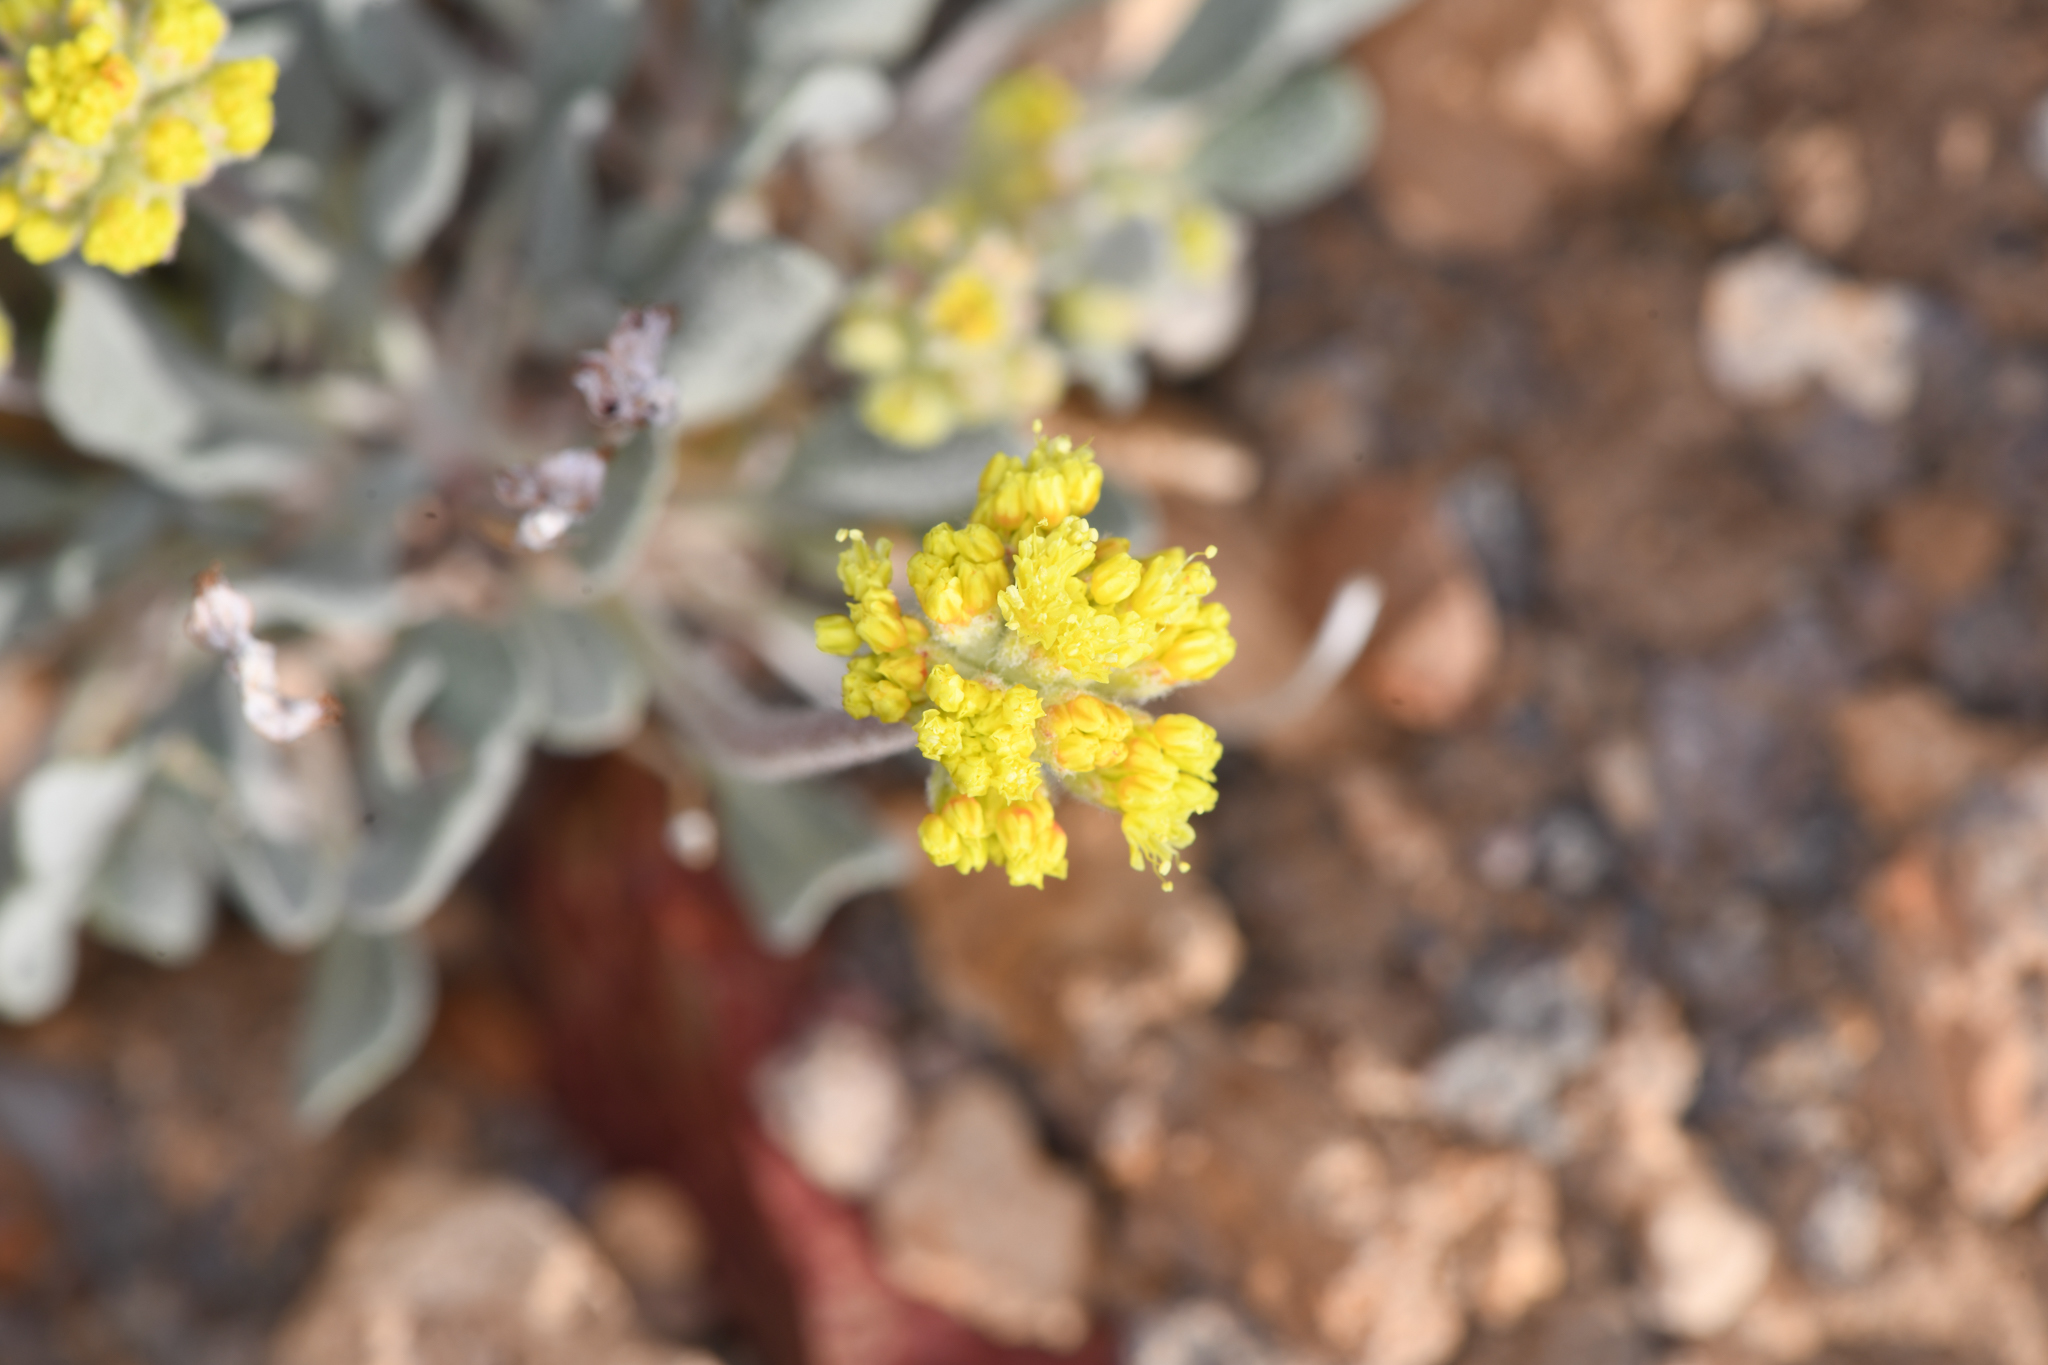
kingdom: Plantae
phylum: Tracheophyta
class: Magnoliopsida
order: Caryophyllales
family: Polygonaceae
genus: Eriogonum
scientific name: Eriogonum alexanderae
